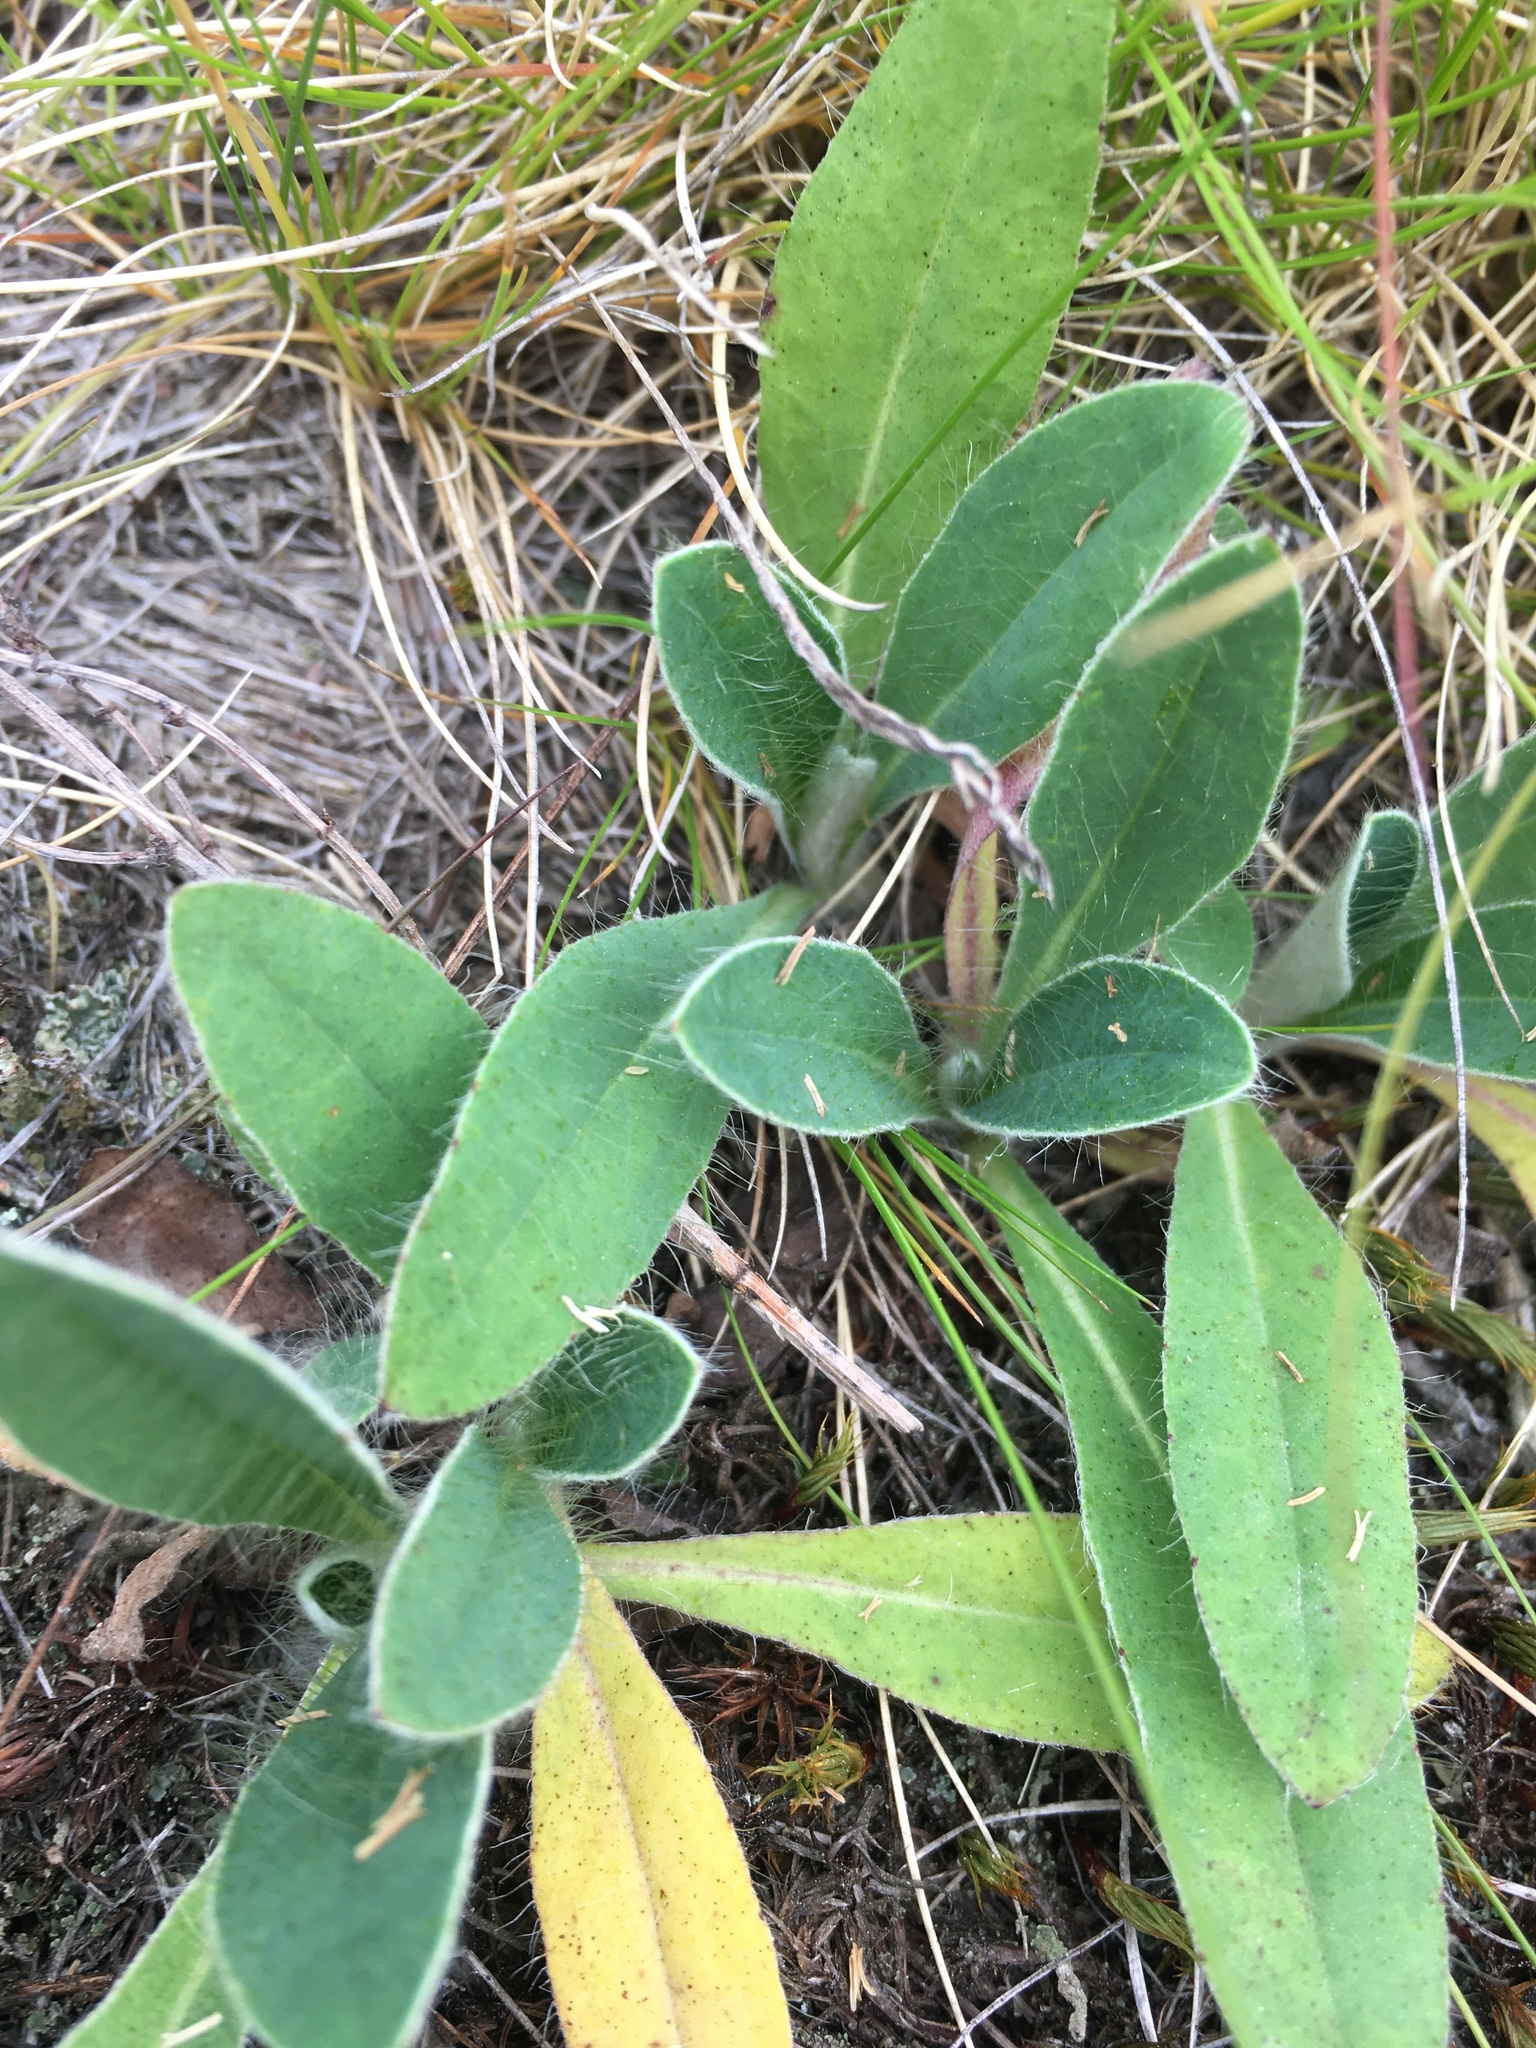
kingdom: Plantae
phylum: Tracheophyta
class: Magnoliopsida
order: Asterales
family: Asteraceae
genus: Pilosella
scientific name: Pilosella officinarum
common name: Mouse-ear hawkweed
